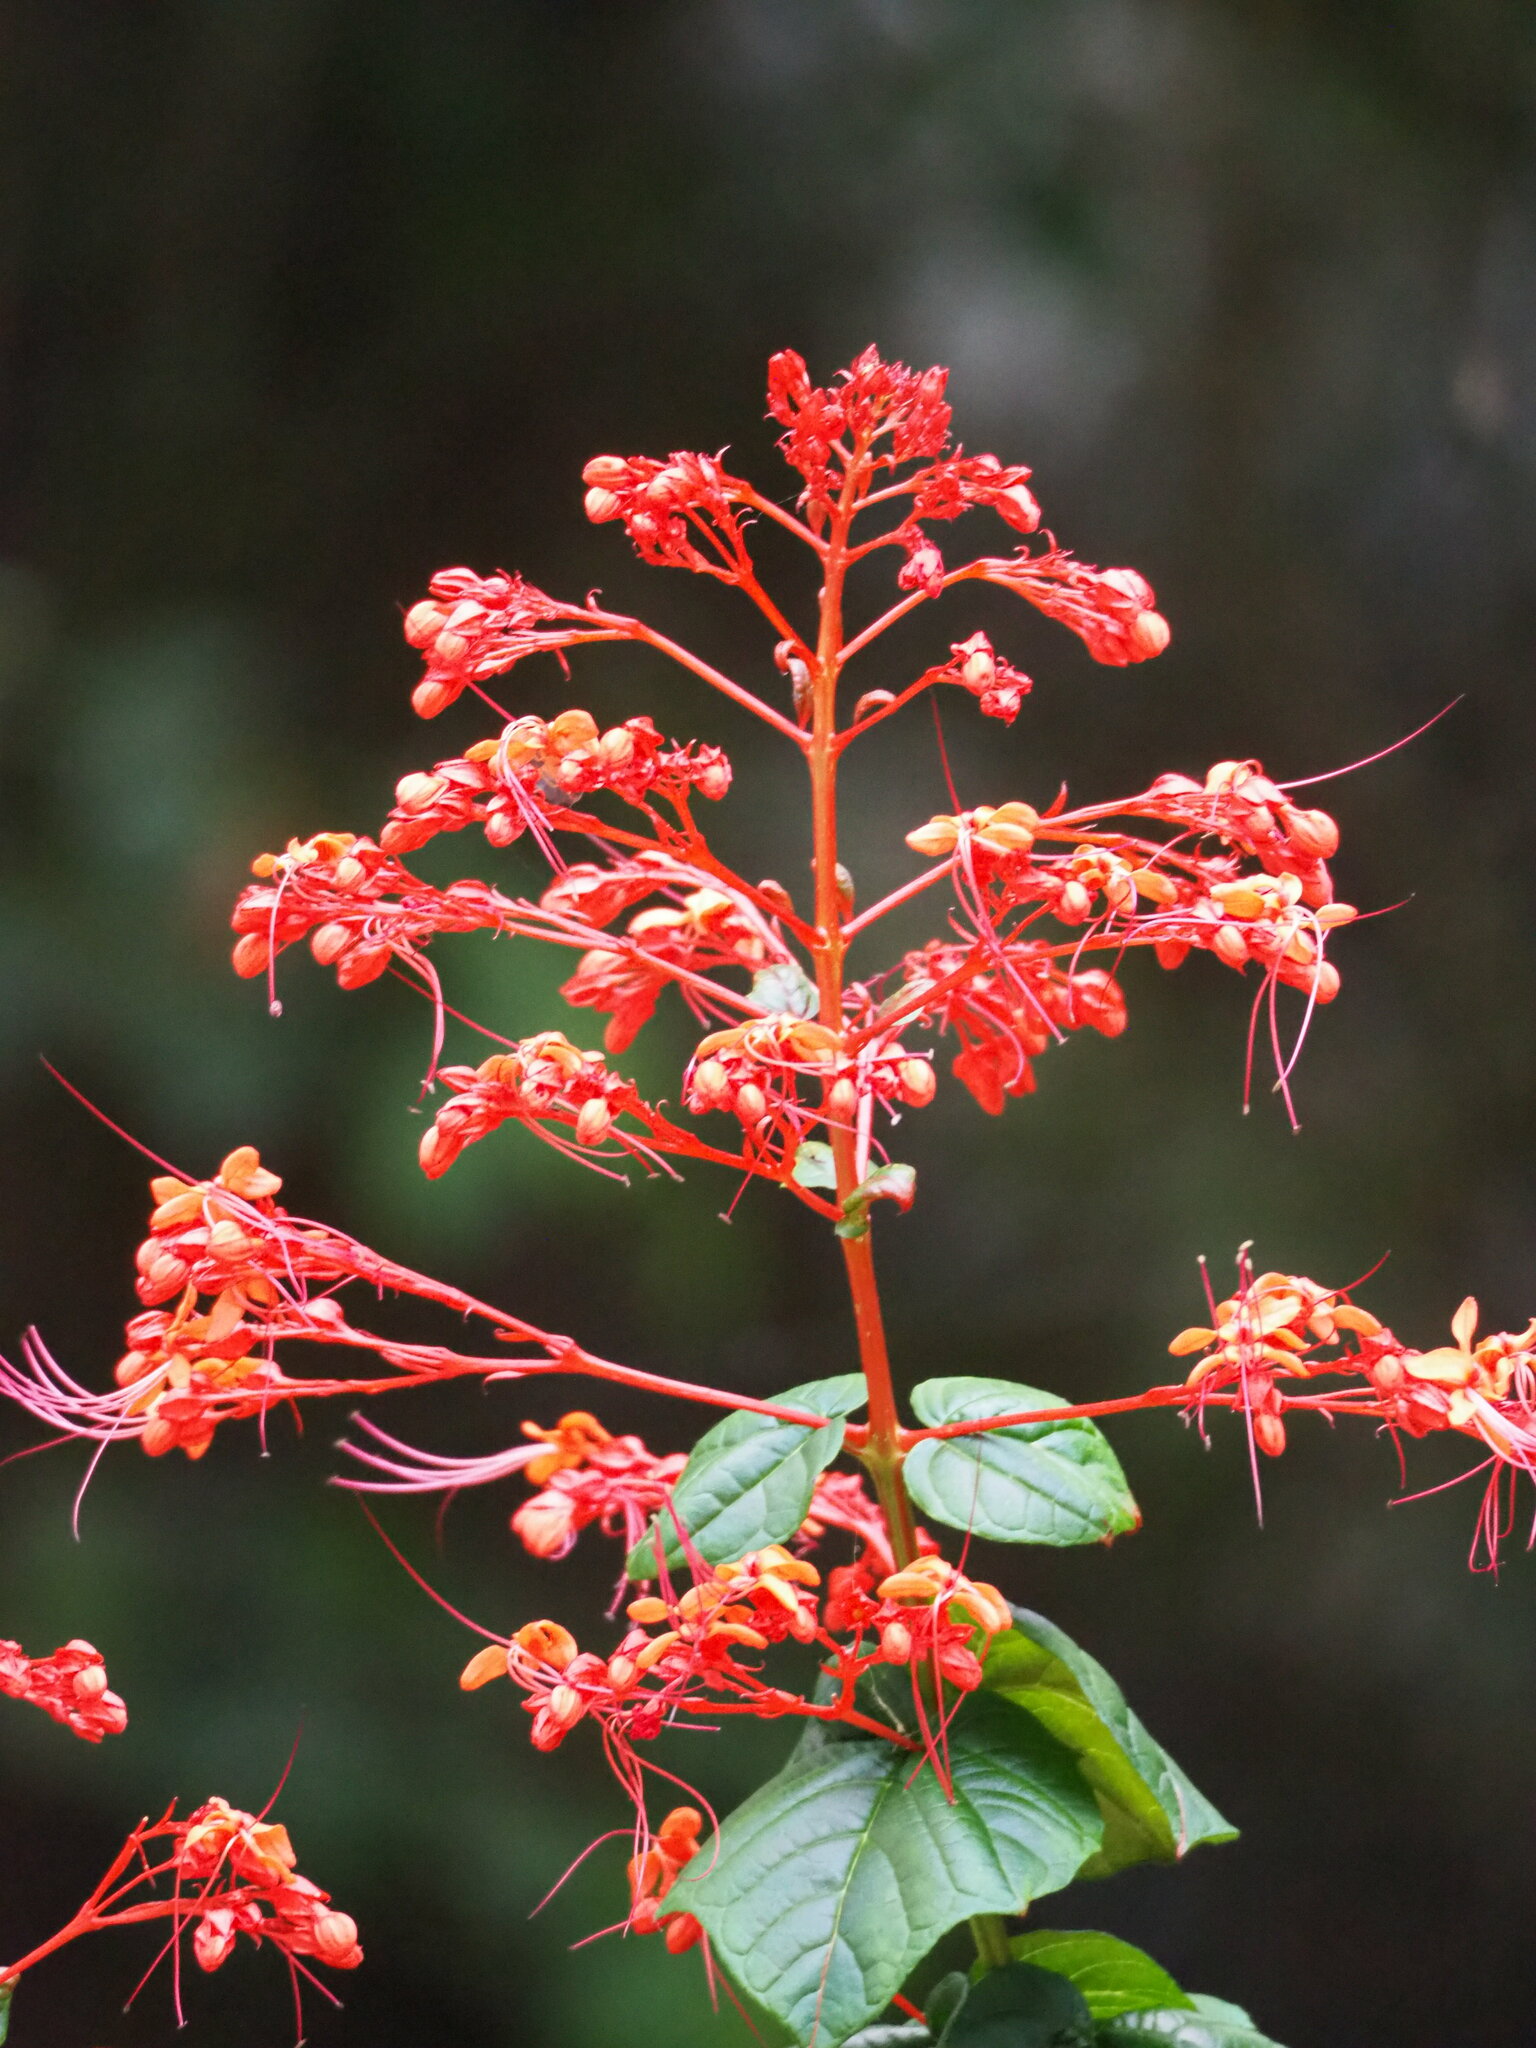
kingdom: Plantae
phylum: Tracheophyta
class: Magnoliopsida
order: Lamiales
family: Lamiaceae
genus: Clerodendrum
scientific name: Clerodendrum japonicum
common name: Japanese glorybower
